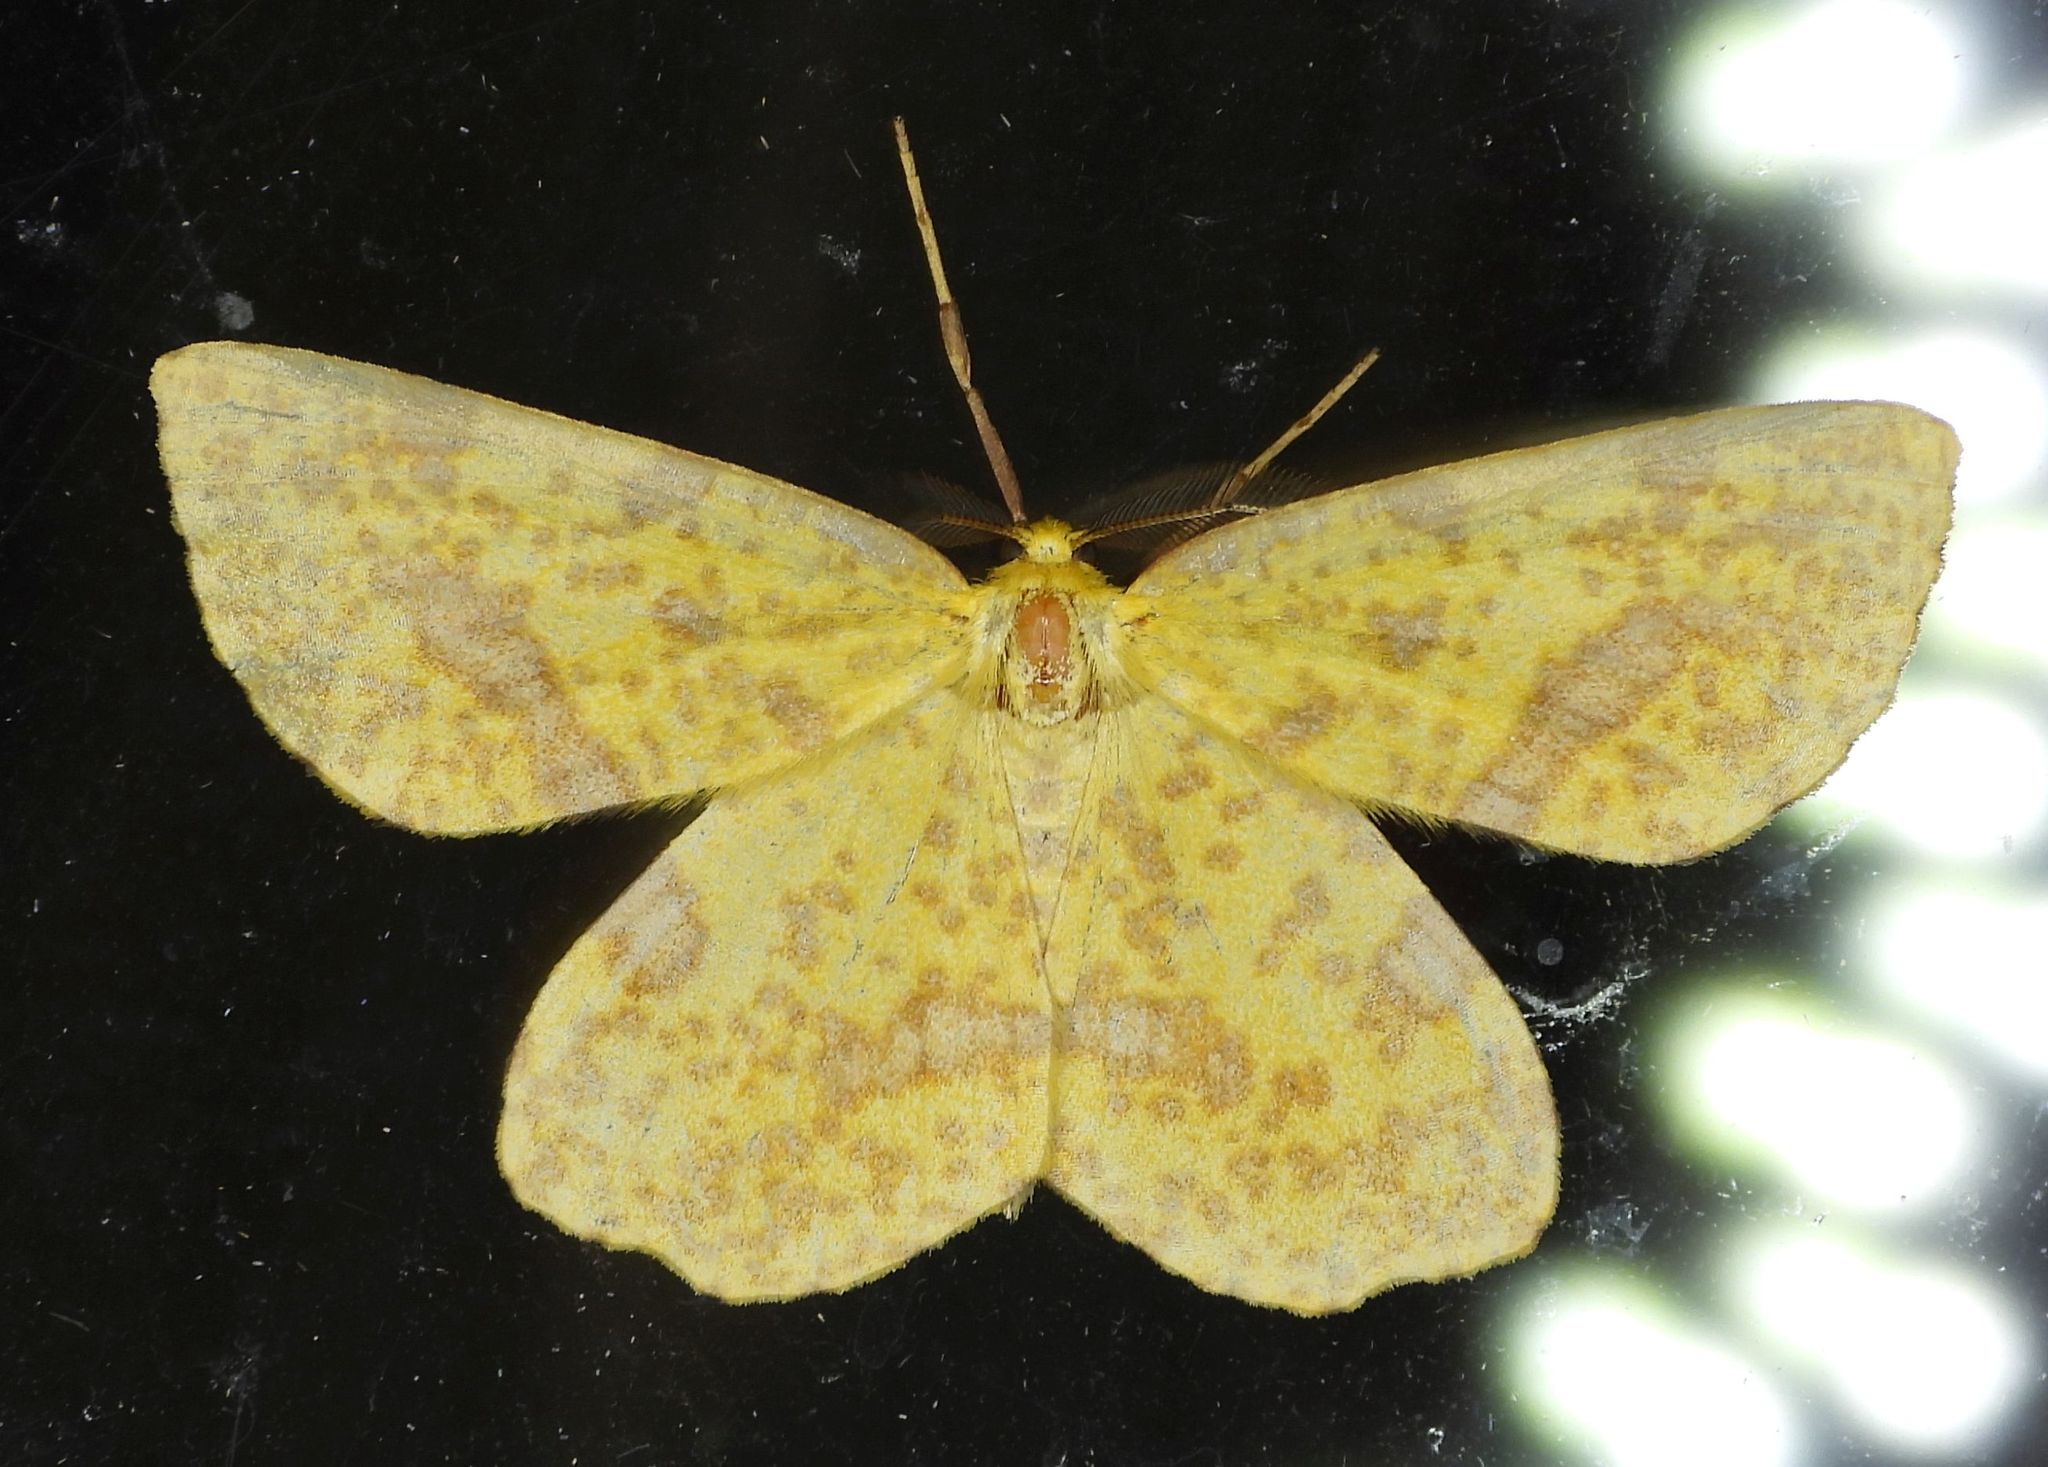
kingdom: Animalia
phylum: Arthropoda
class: Insecta
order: Lepidoptera
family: Geometridae
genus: Xanthotype
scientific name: Xanthotype
